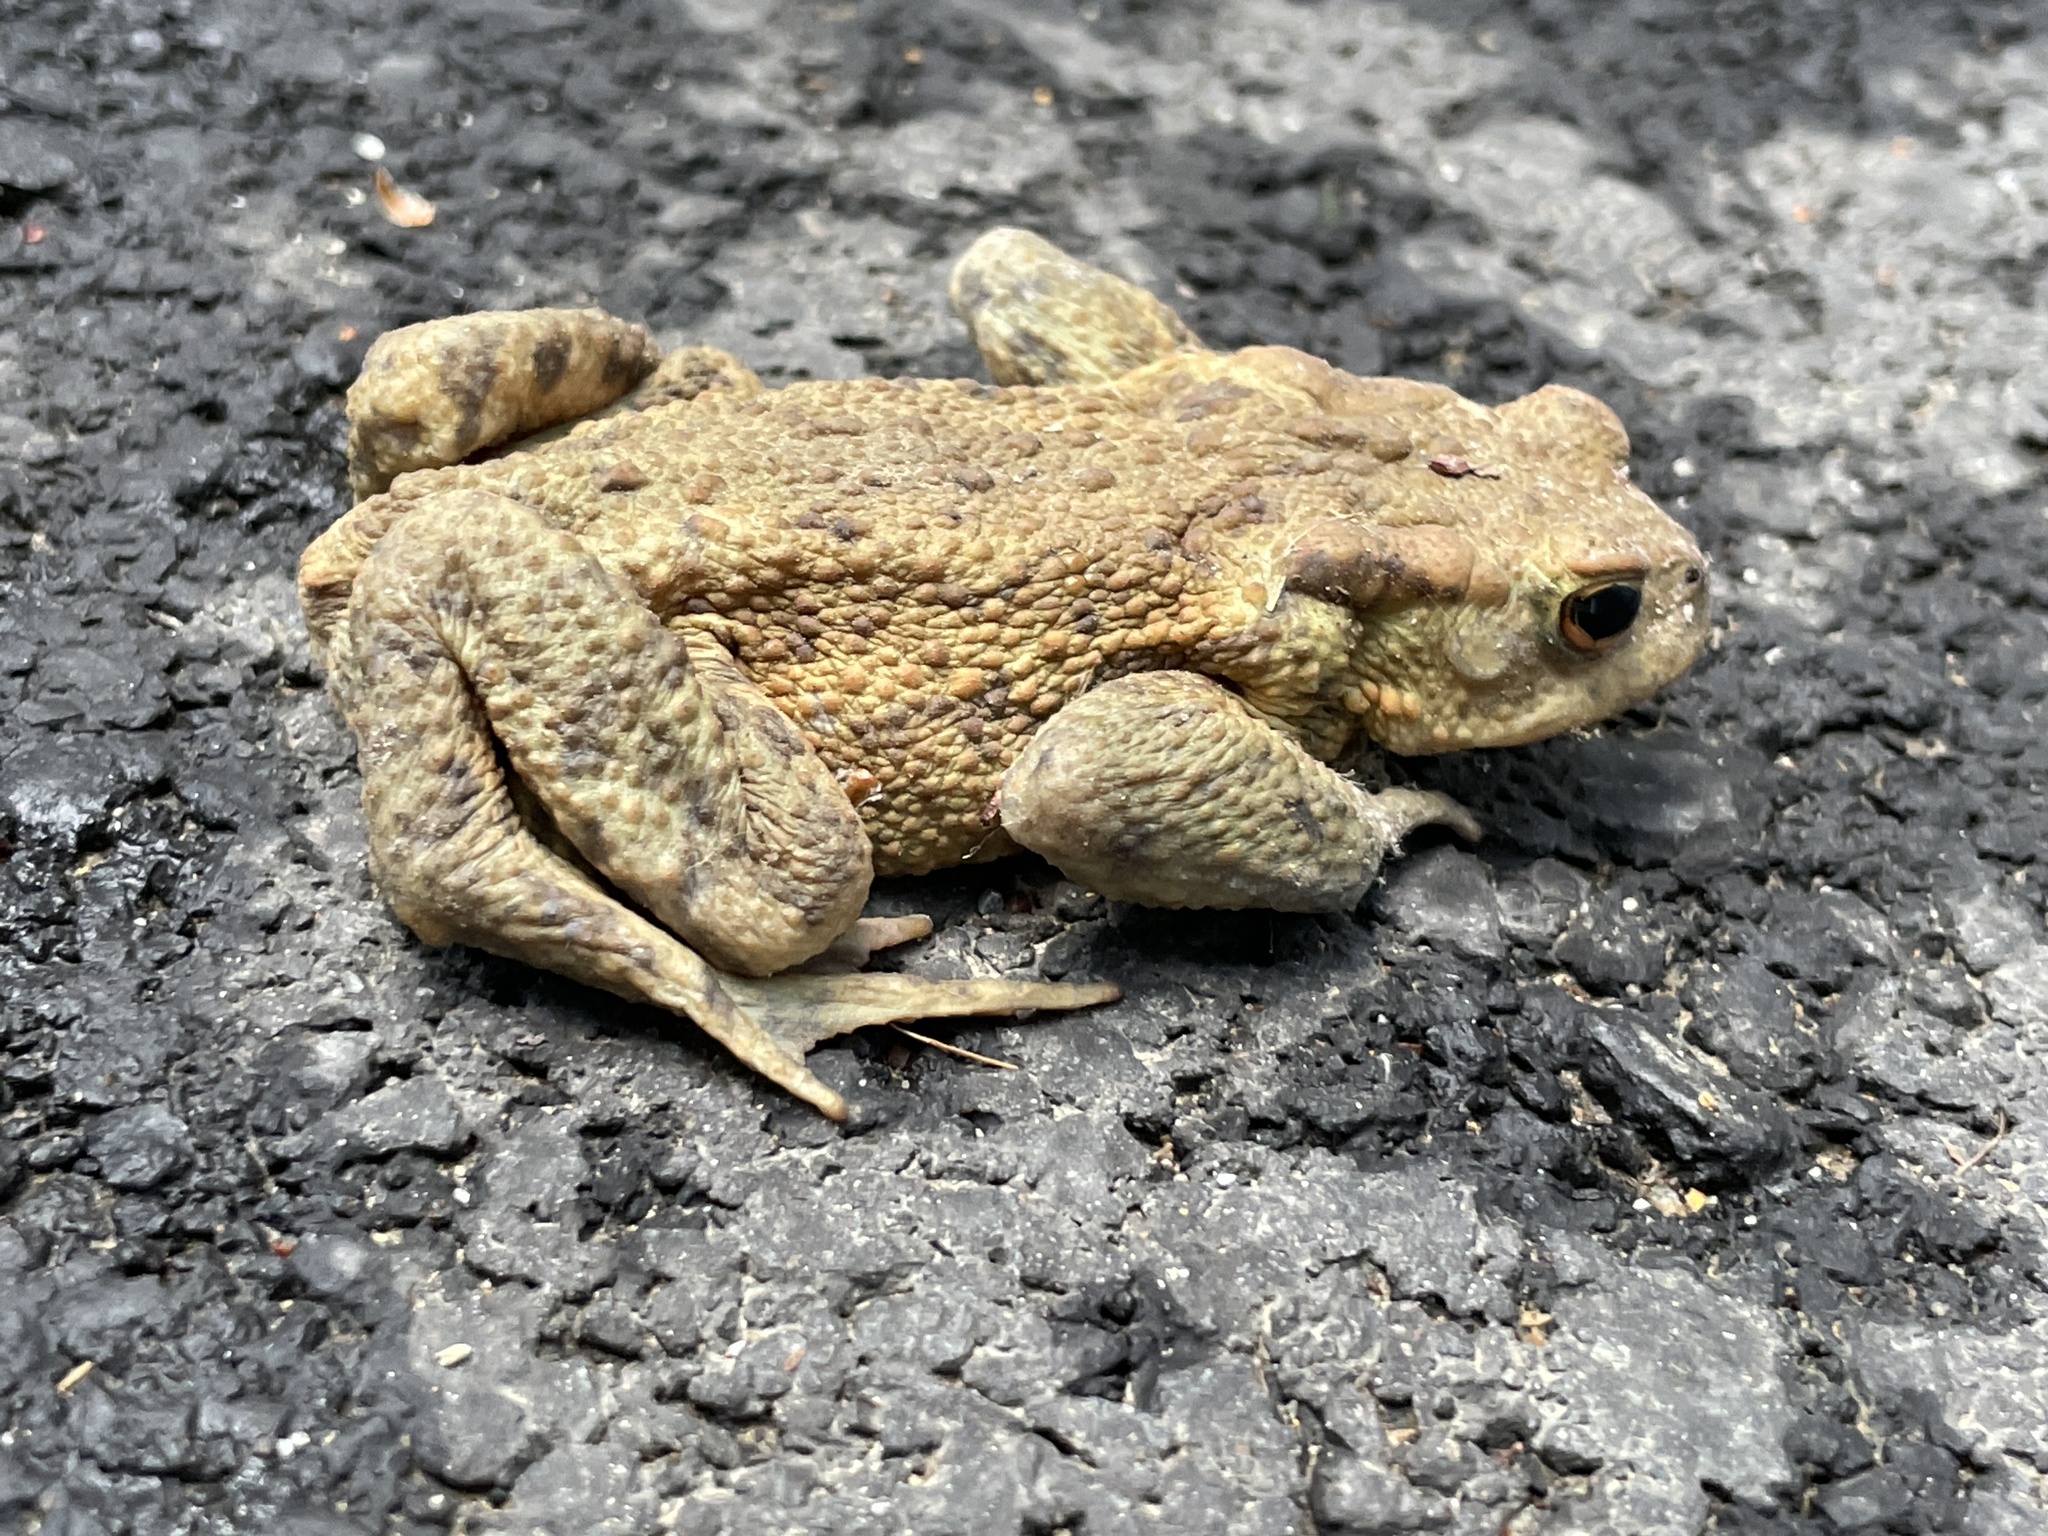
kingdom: Animalia
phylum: Chordata
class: Amphibia
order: Anura
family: Bufonidae
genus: Bufo
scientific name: Bufo bufo
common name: Common toad
